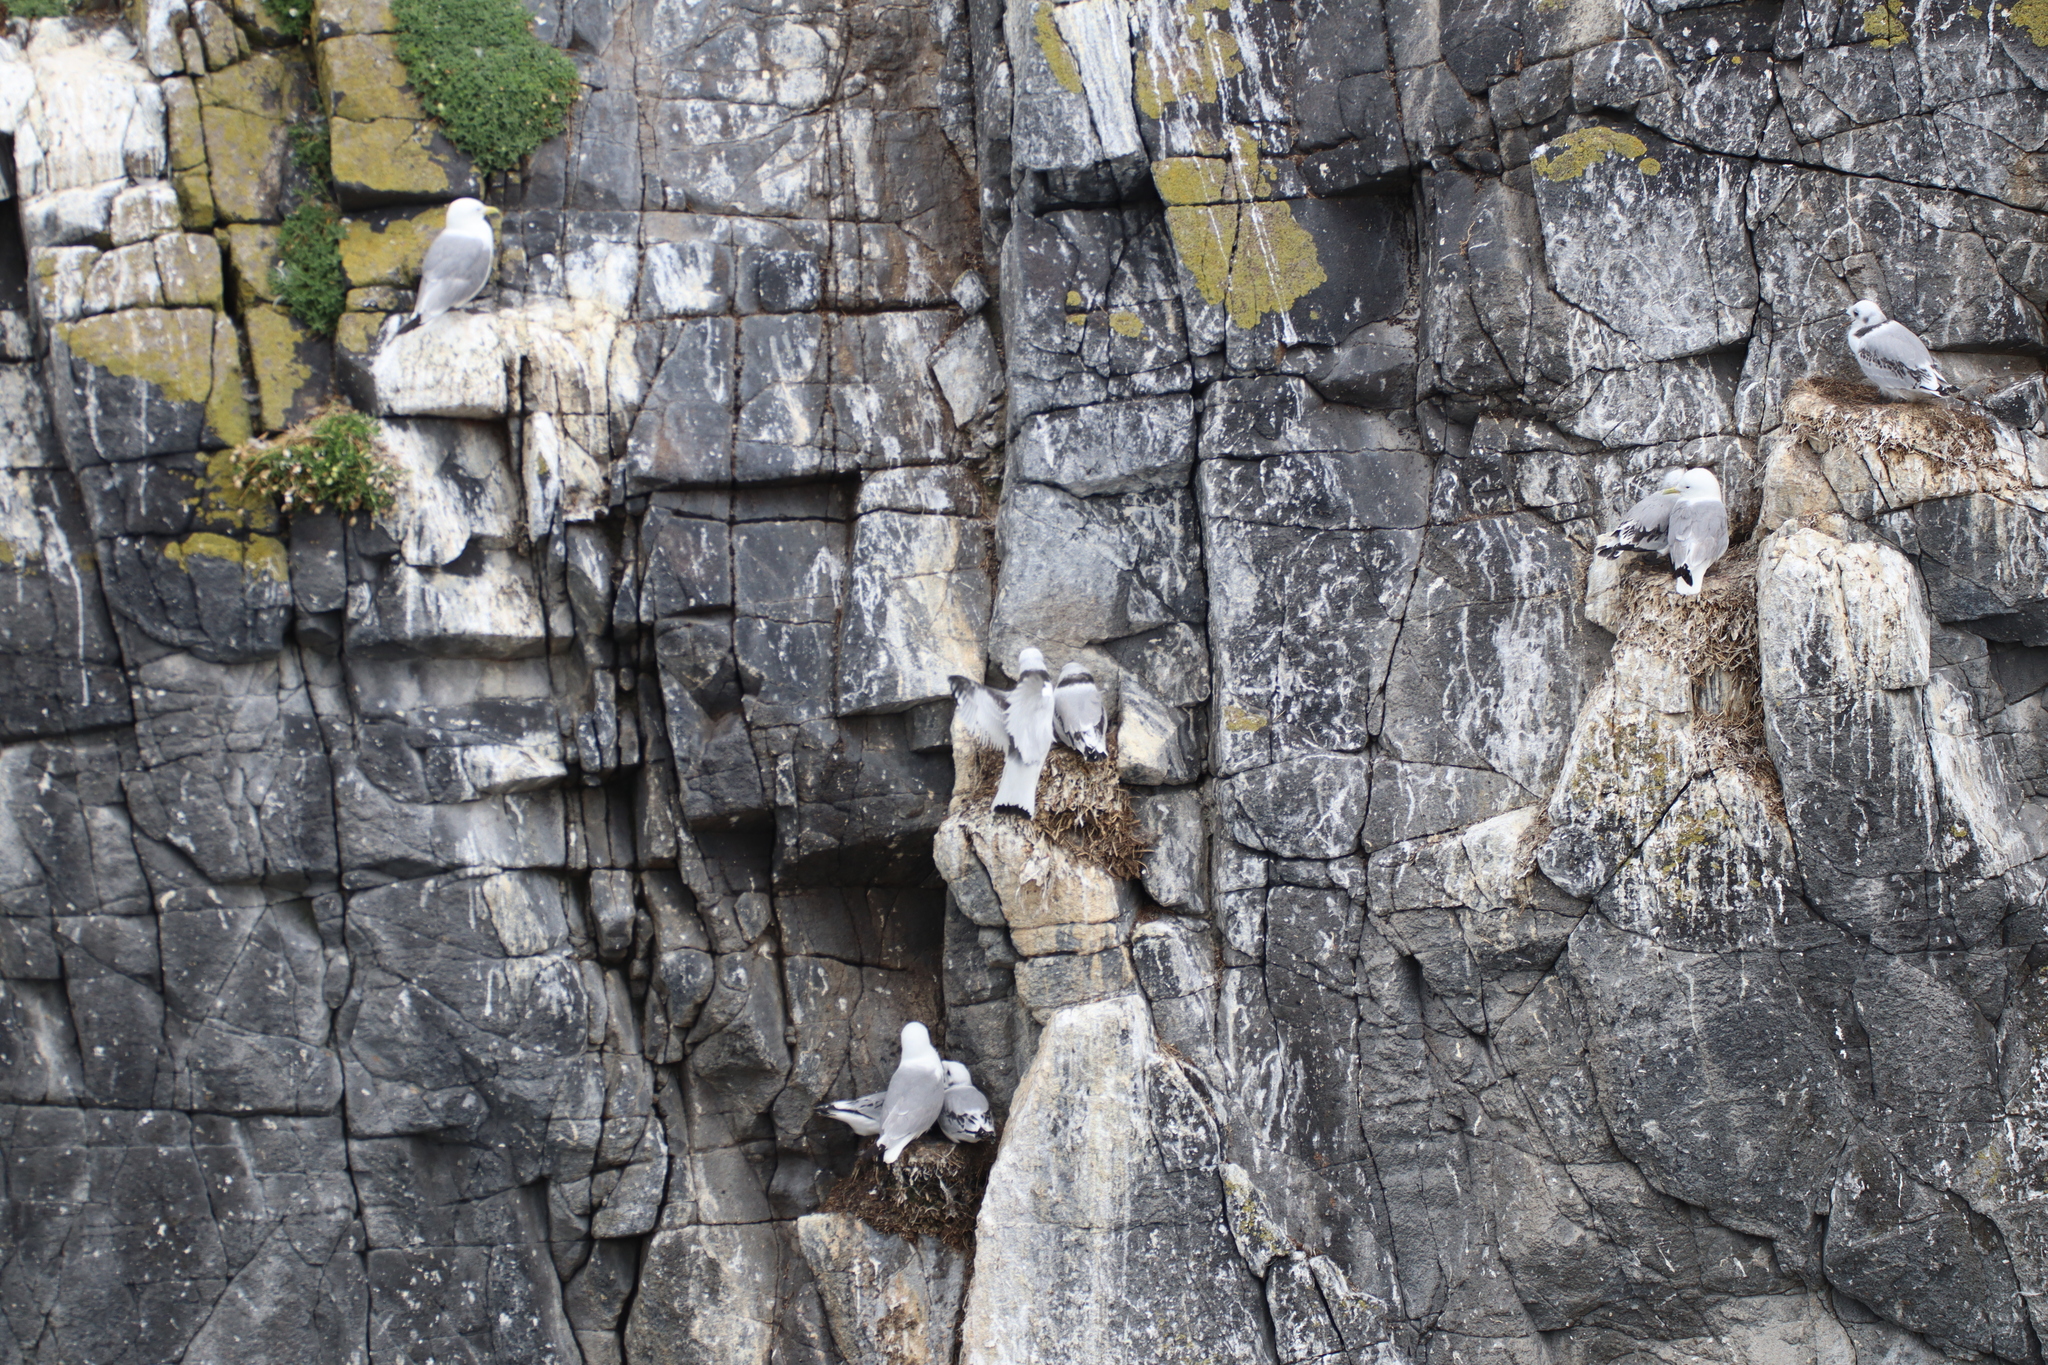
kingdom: Animalia
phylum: Chordata
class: Aves
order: Charadriiformes
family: Laridae
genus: Rissa
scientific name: Rissa tridactyla
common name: Black-legged kittiwake
